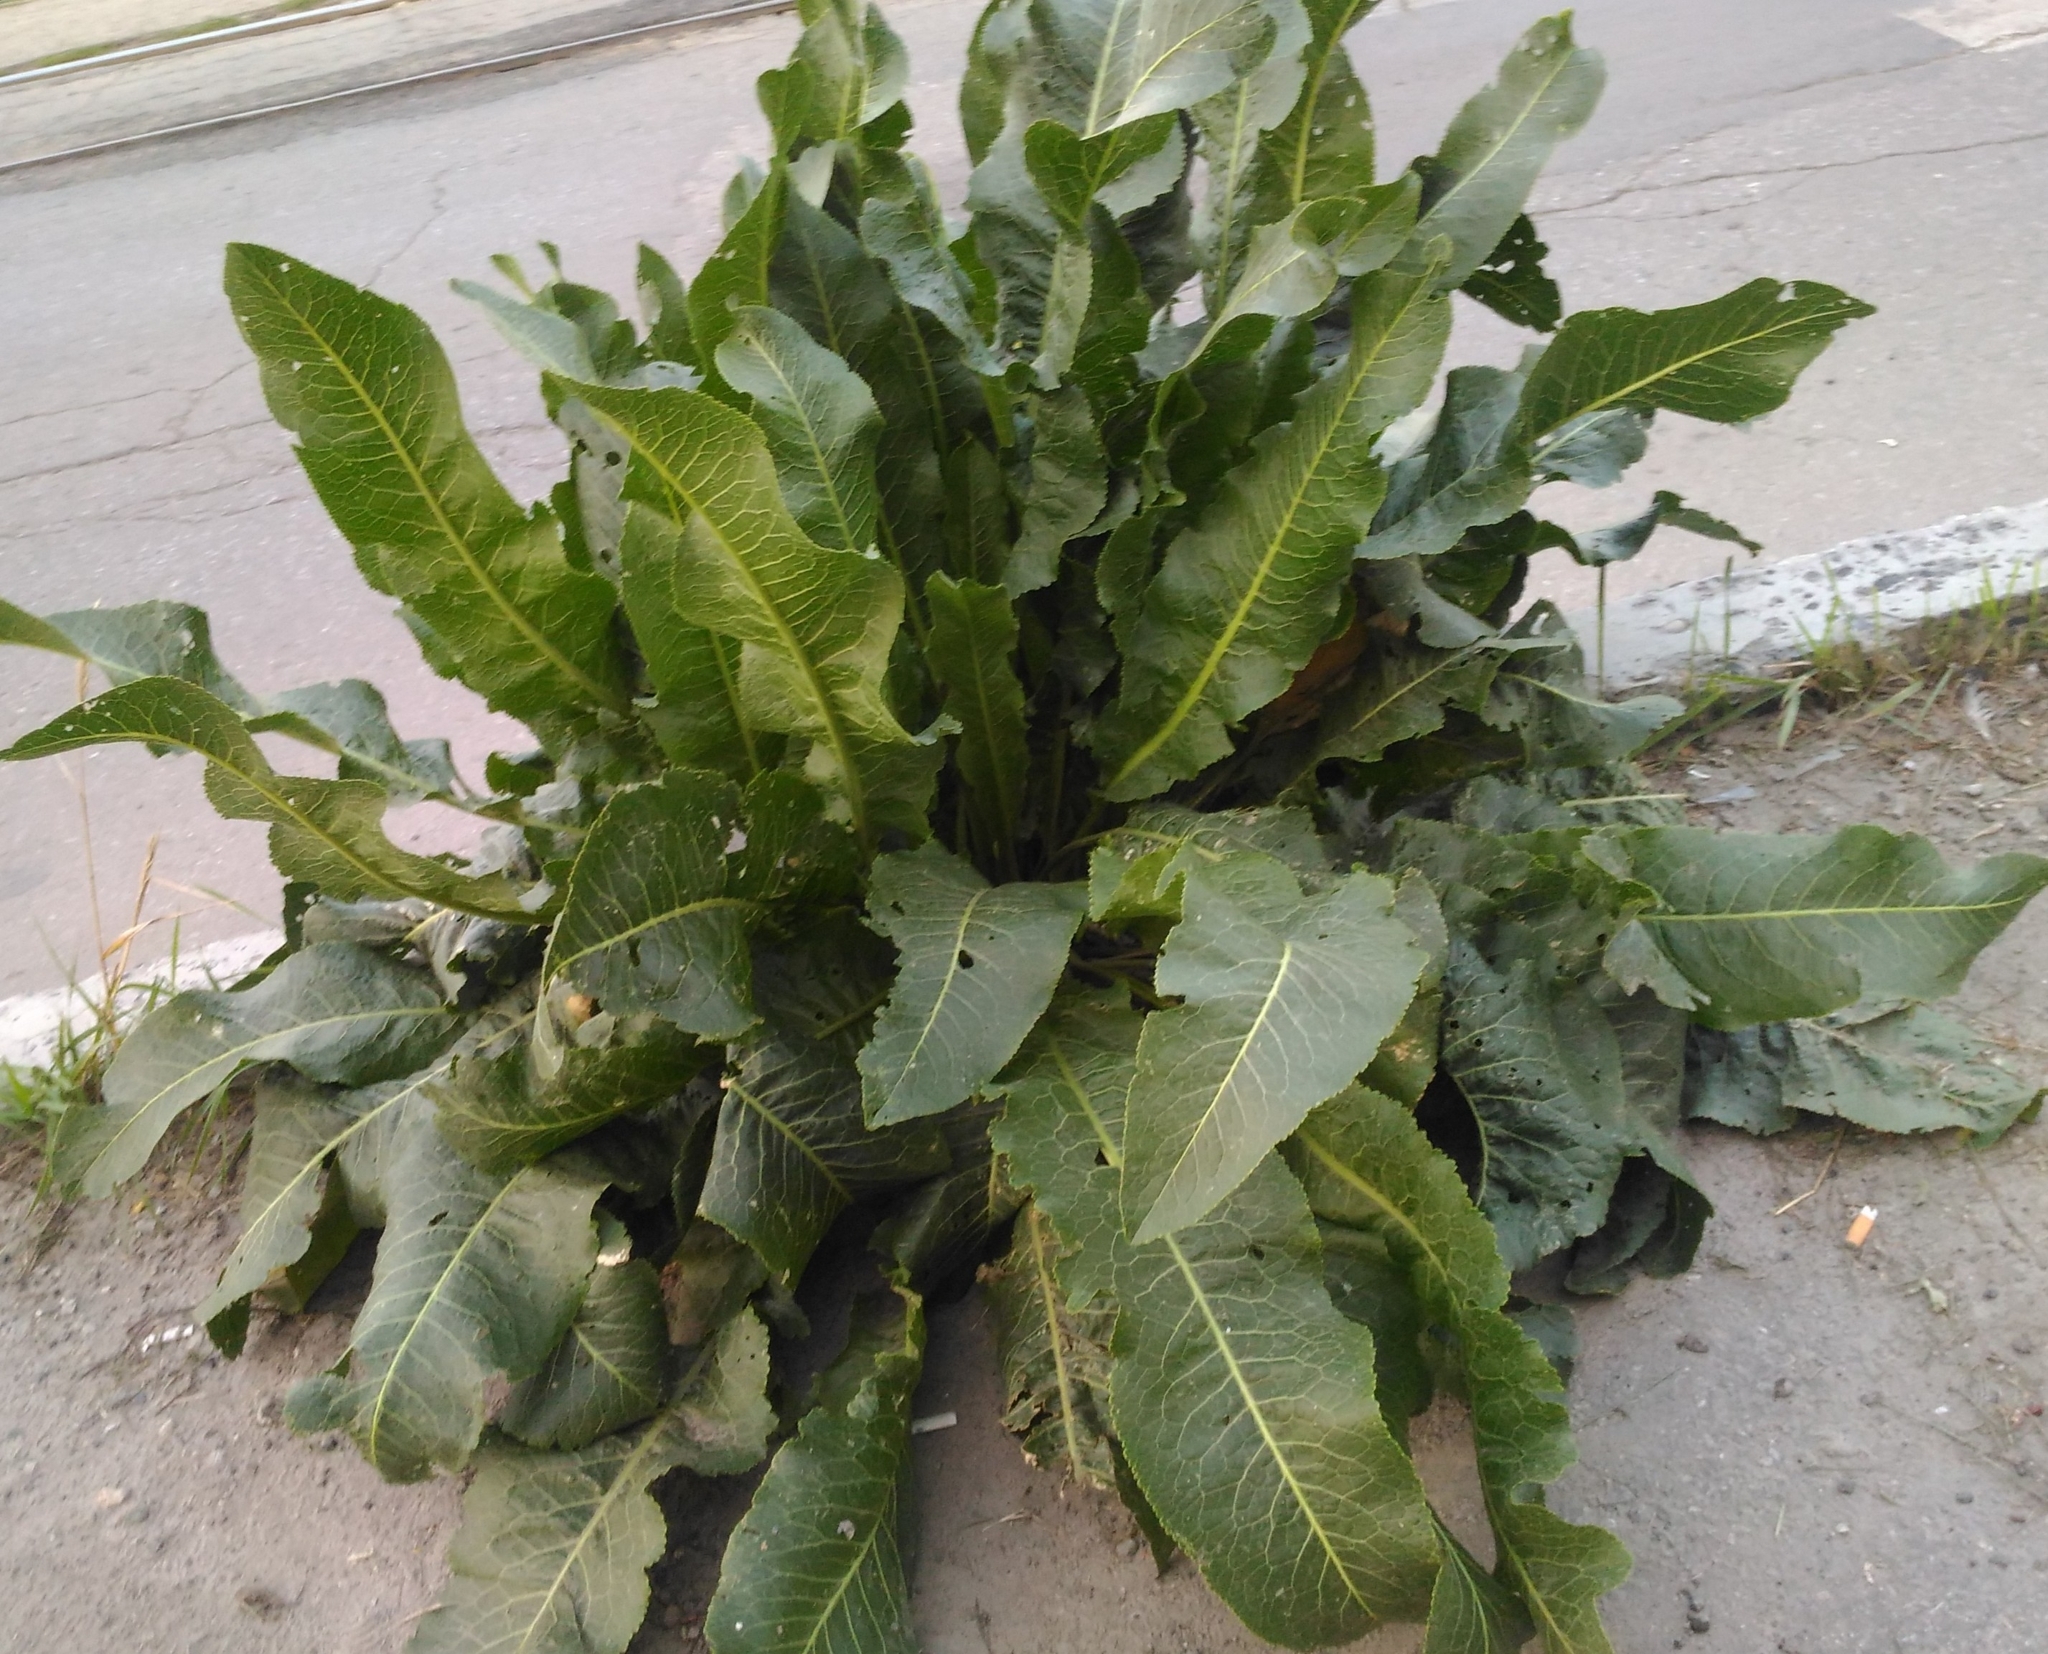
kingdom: Plantae
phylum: Tracheophyta
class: Magnoliopsida
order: Brassicales
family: Brassicaceae
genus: Armoracia
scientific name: Armoracia rusticana
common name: Horseradish
